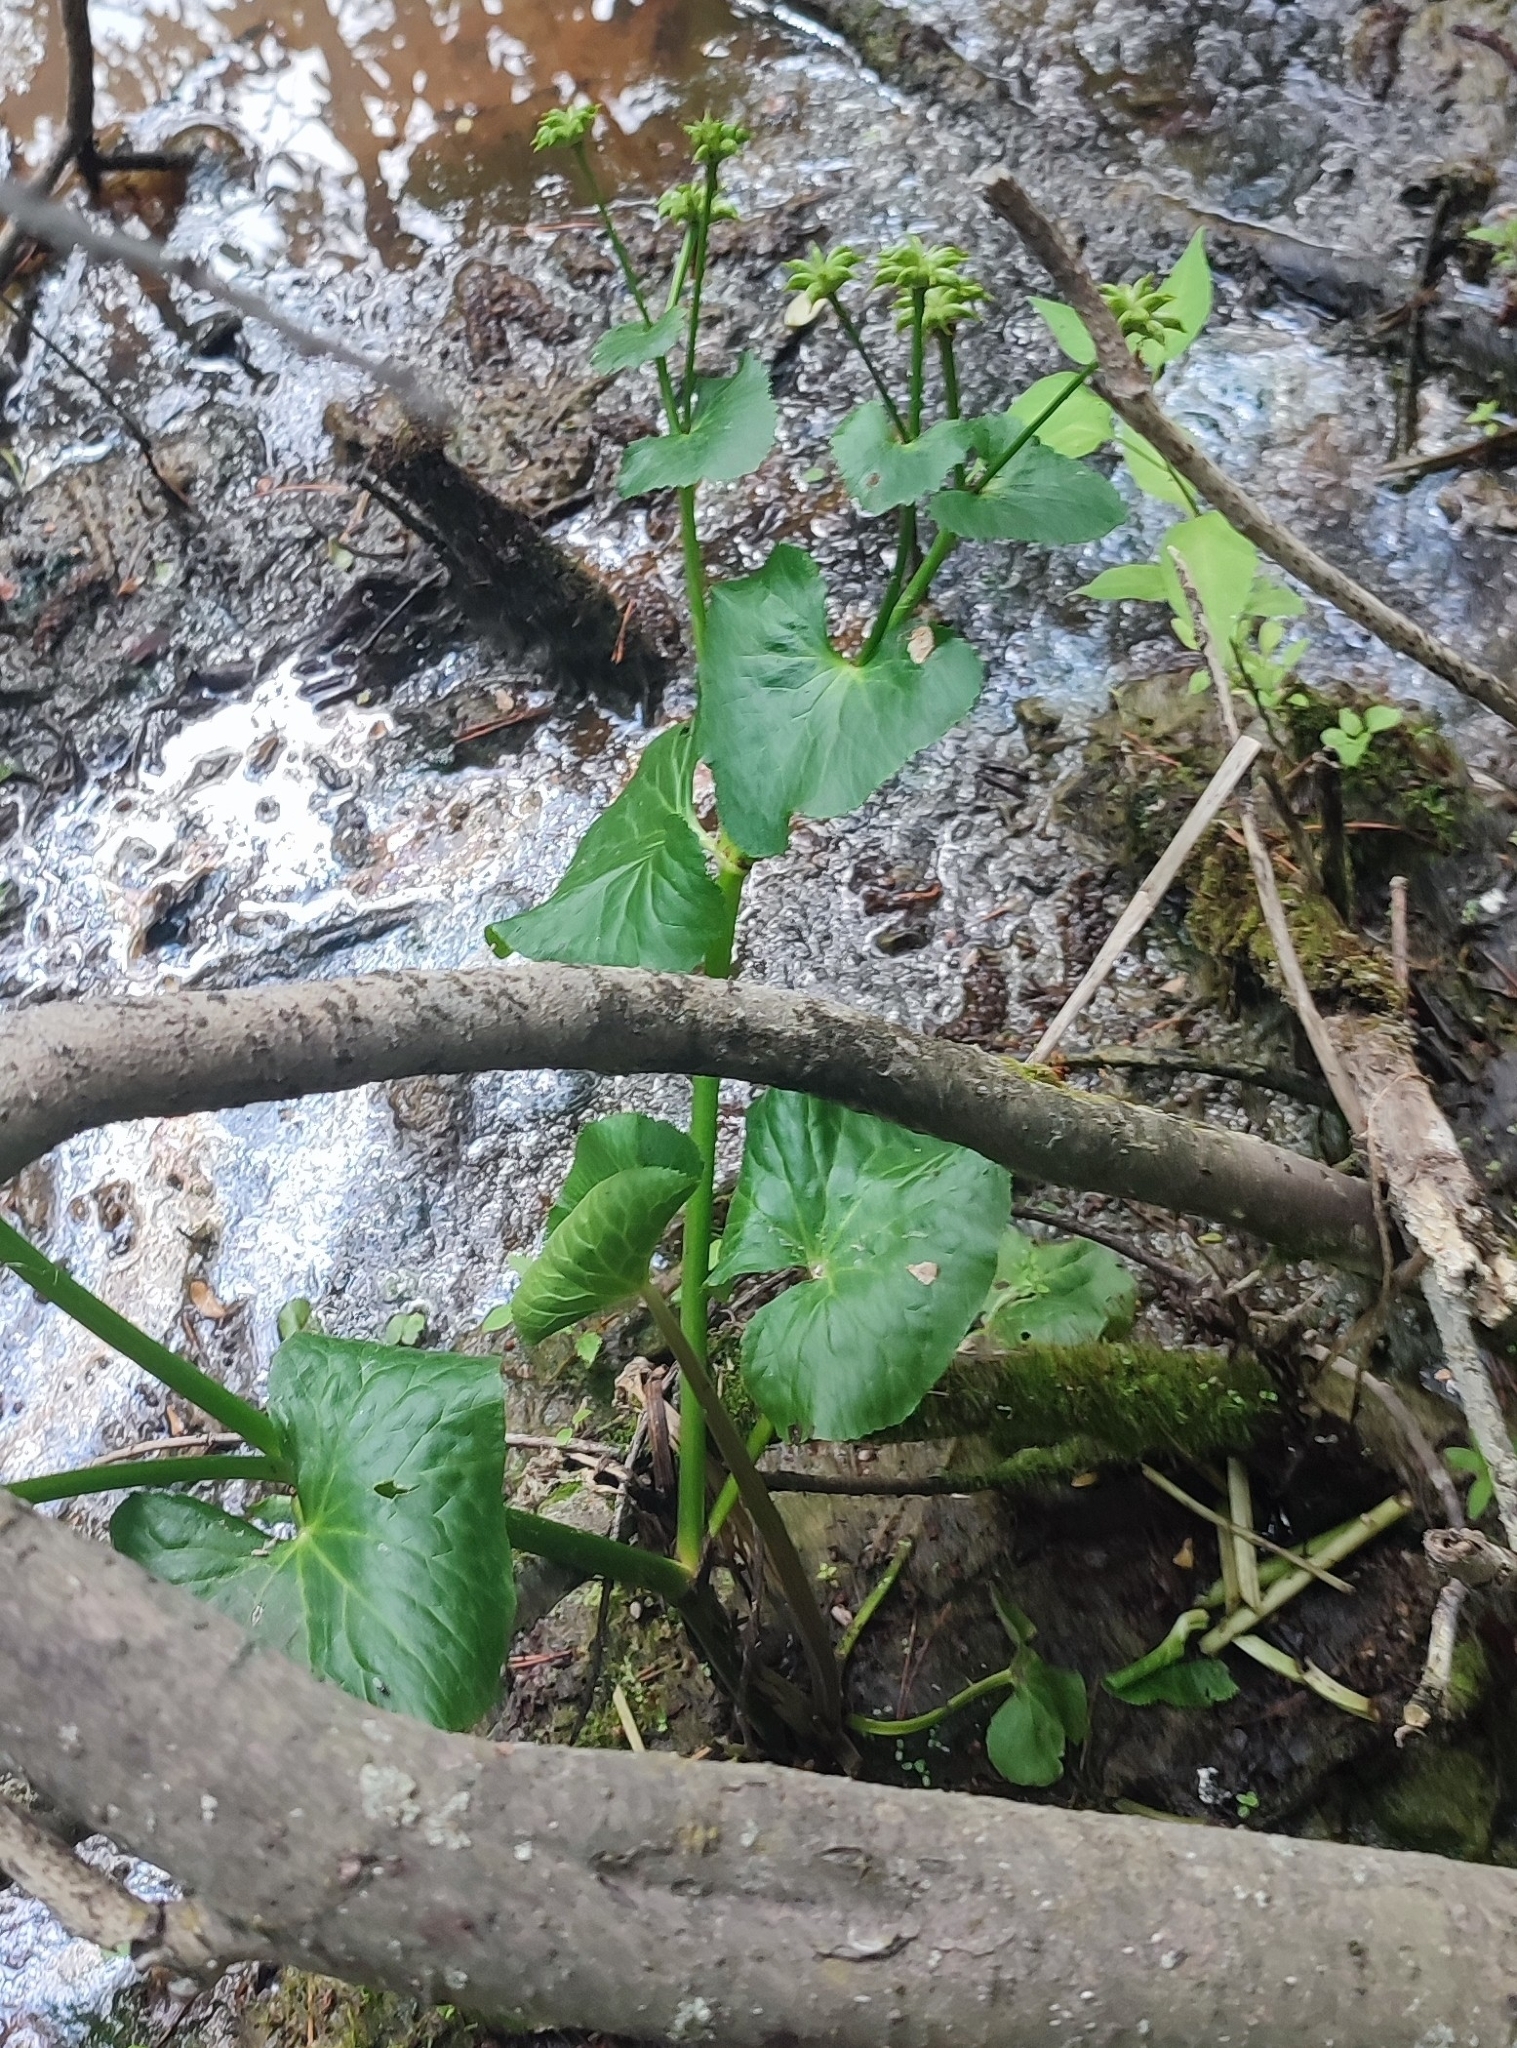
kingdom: Plantae
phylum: Tracheophyta
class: Magnoliopsida
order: Ranunculales
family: Ranunculaceae
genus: Caltha
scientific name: Caltha palustris
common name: Marsh marigold
